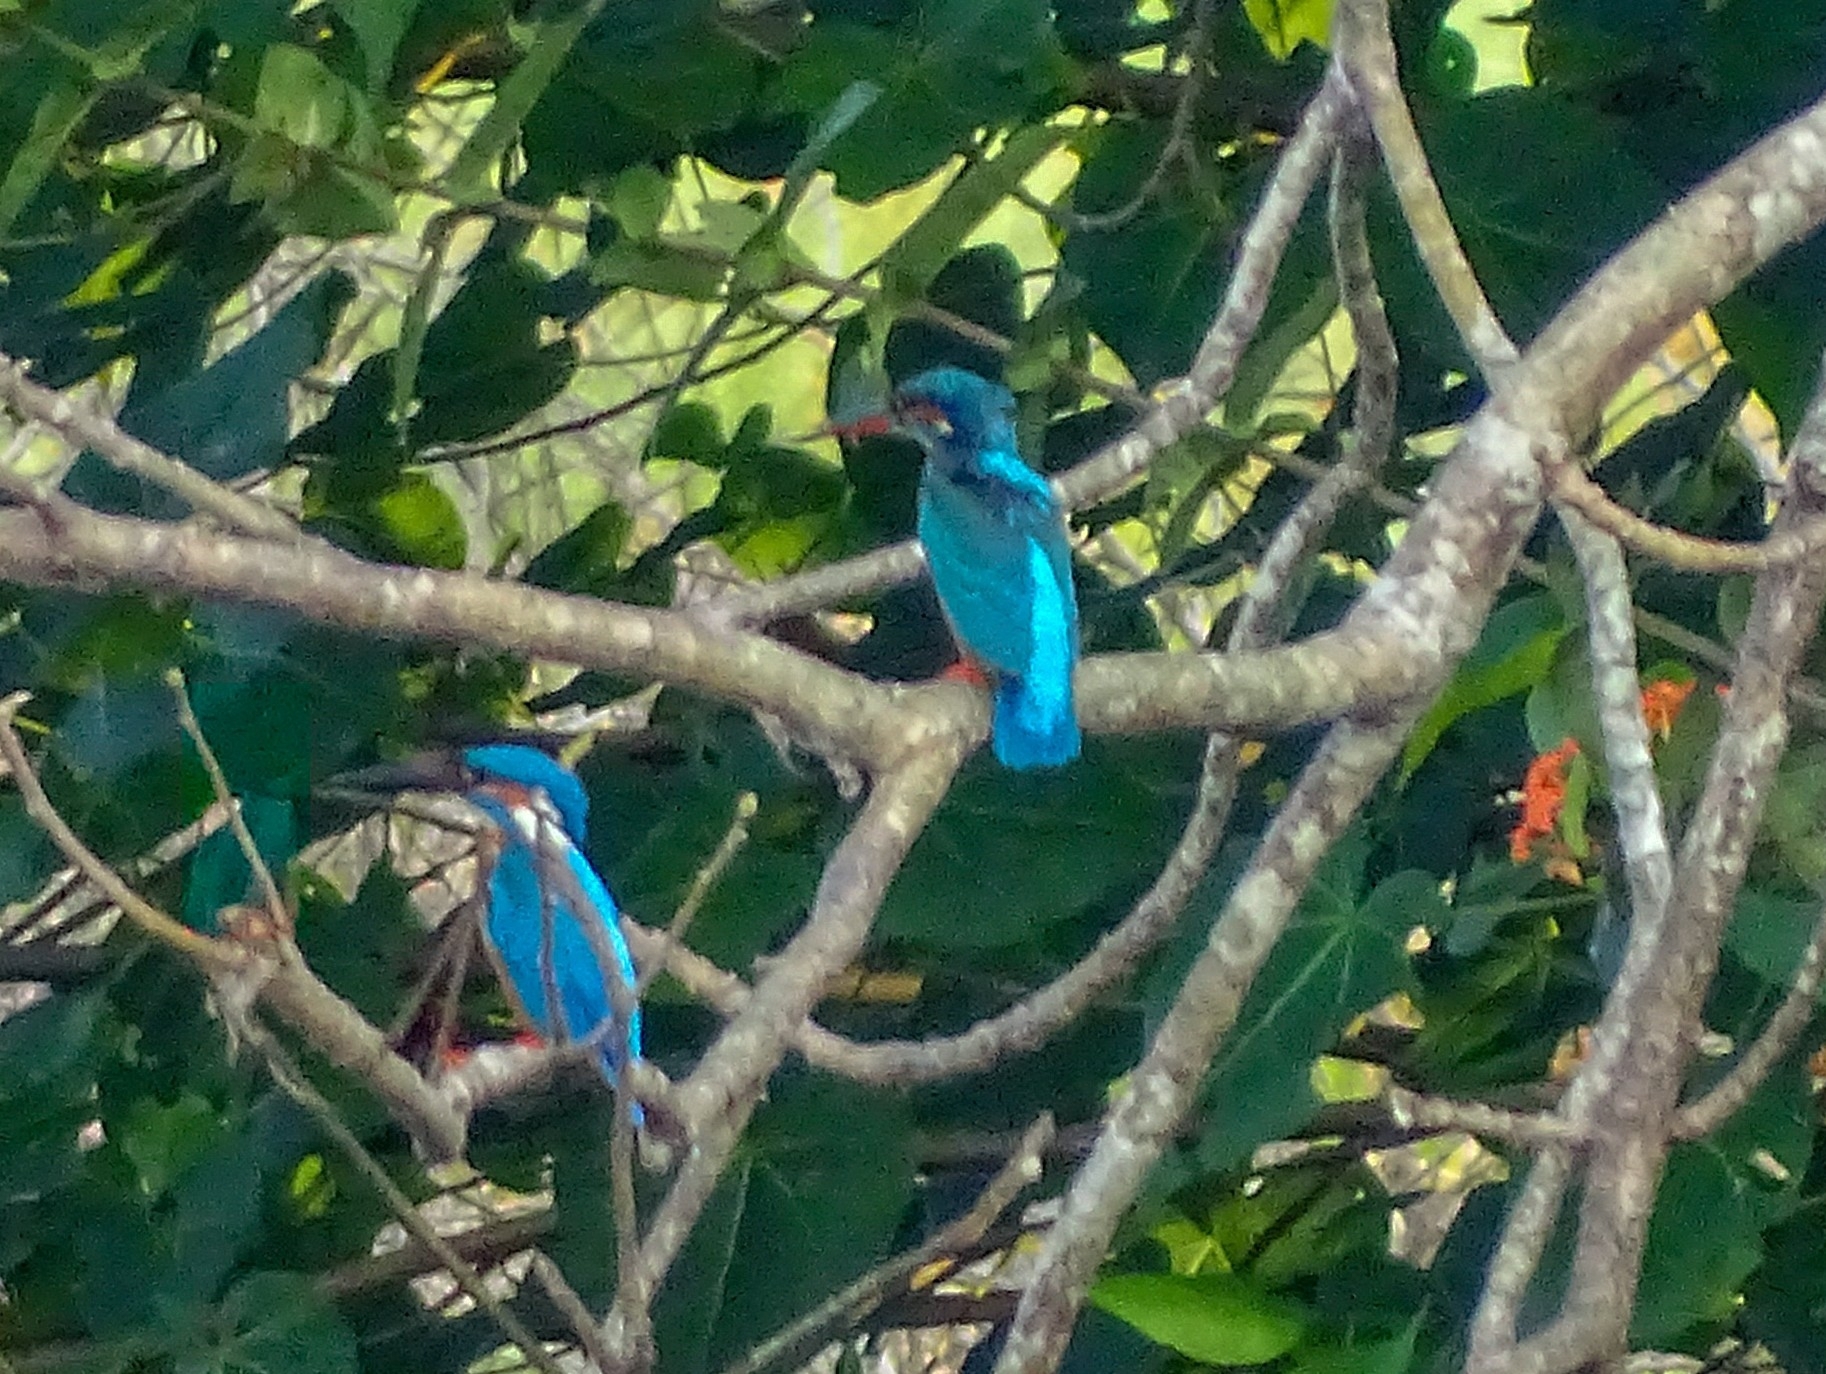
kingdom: Animalia
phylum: Chordata
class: Aves
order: Coraciiformes
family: Alcedinidae
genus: Alcedo
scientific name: Alcedo atthis
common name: Common kingfisher
